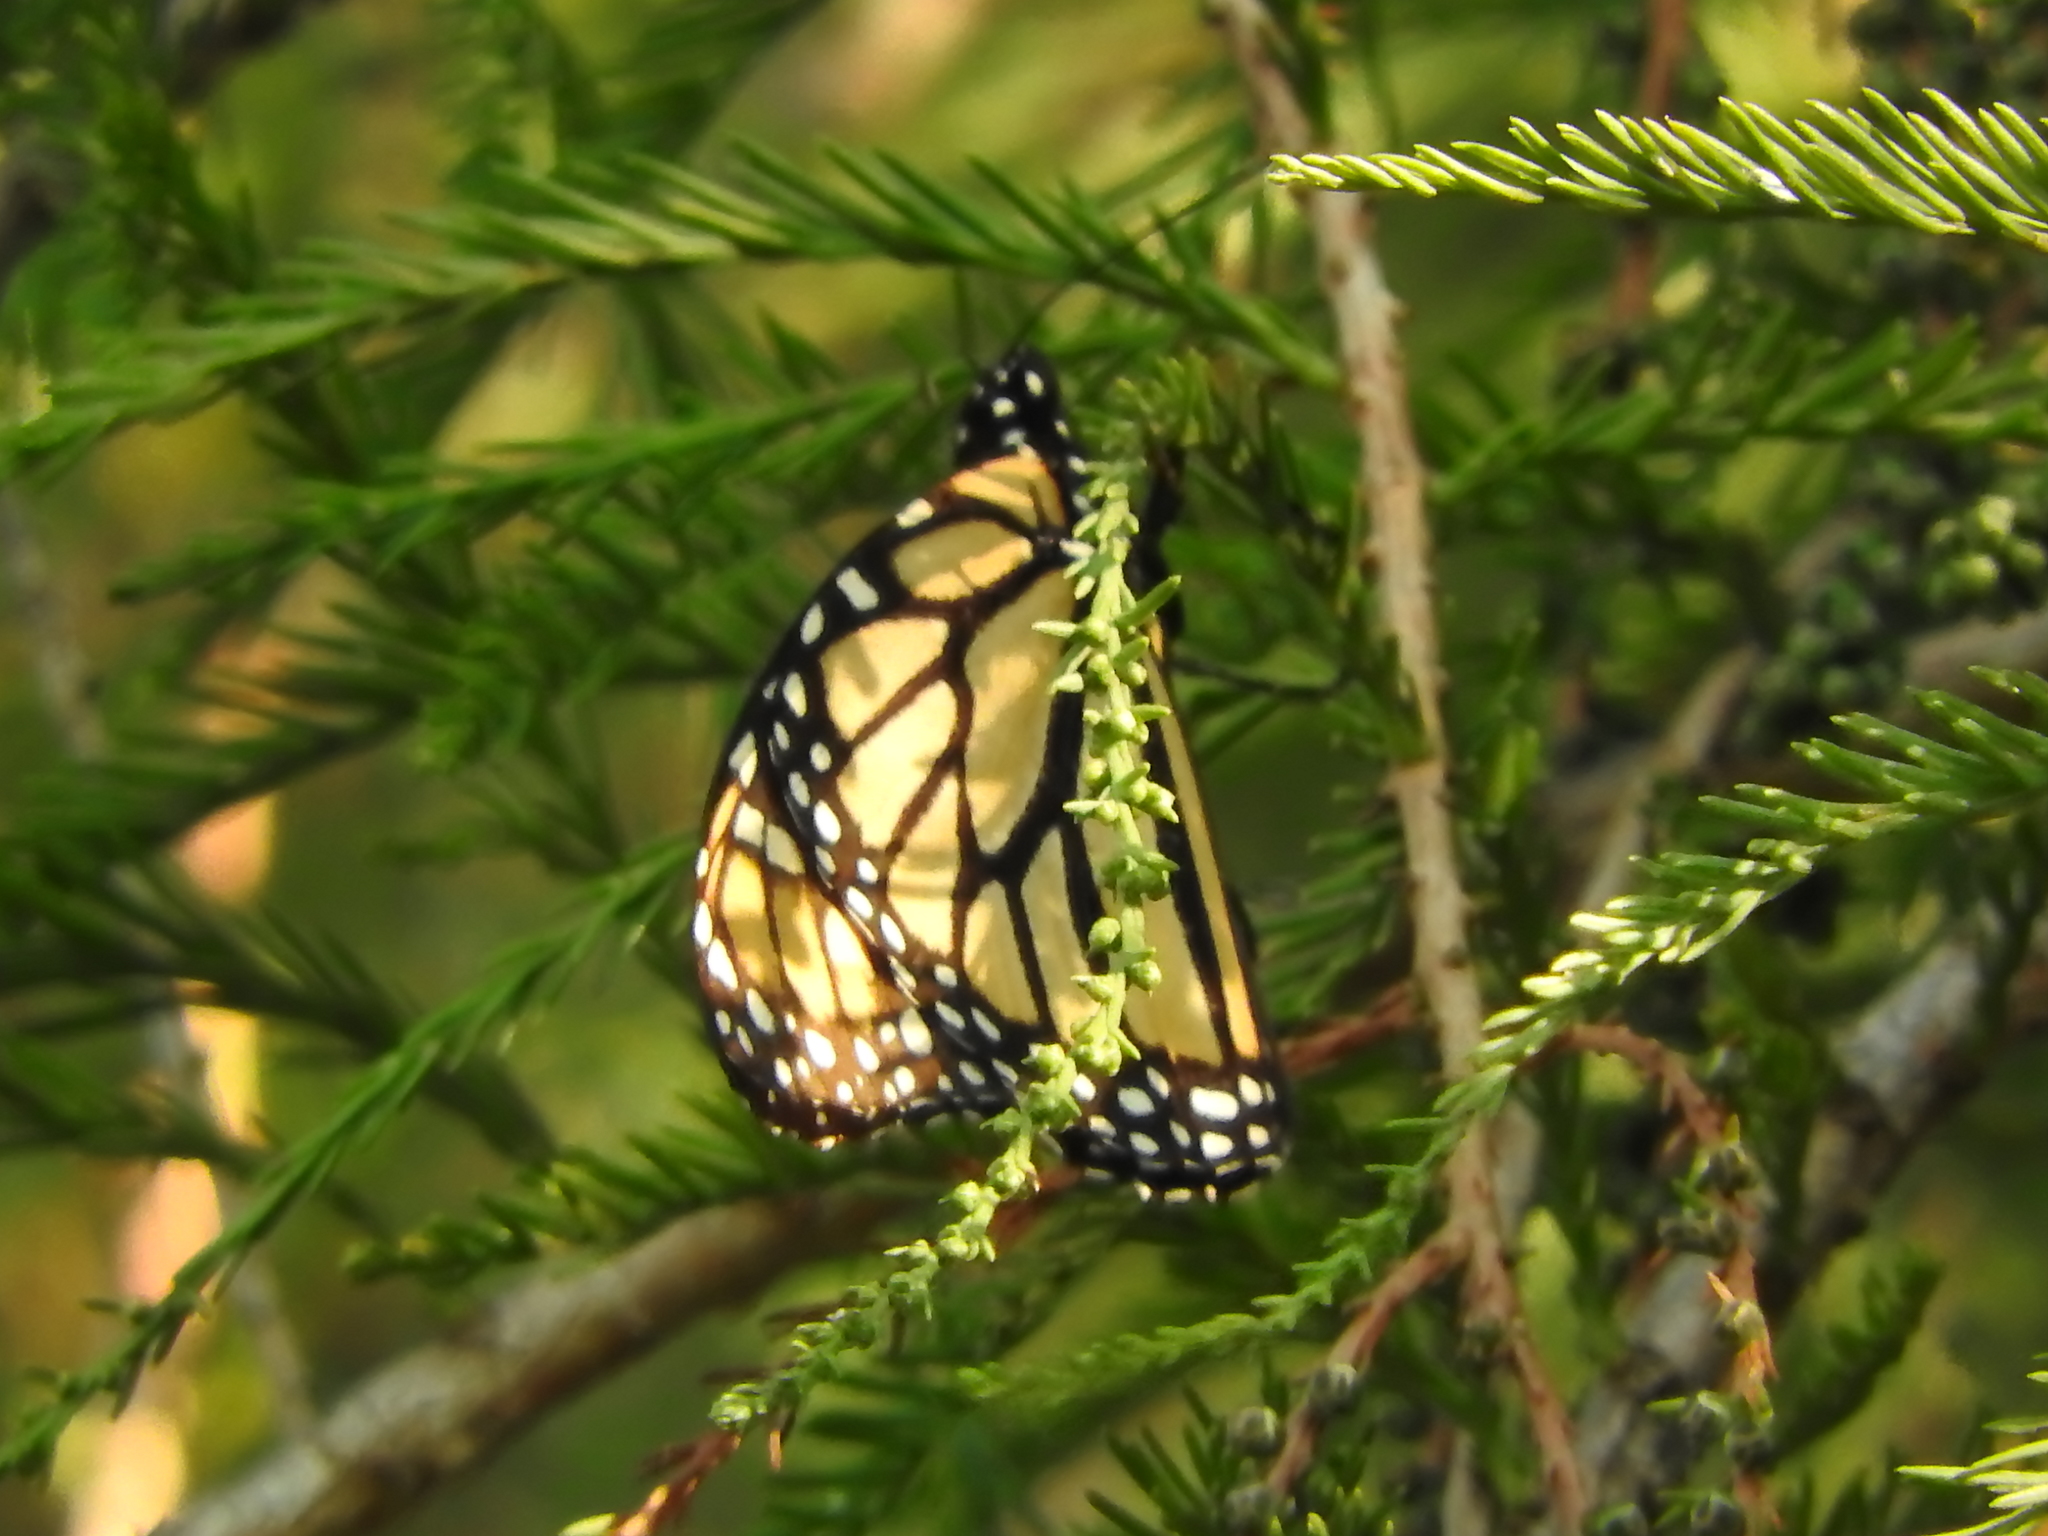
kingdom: Animalia
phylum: Arthropoda
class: Insecta
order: Lepidoptera
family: Nymphalidae
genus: Danaus
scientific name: Danaus plexippus
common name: Monarch
